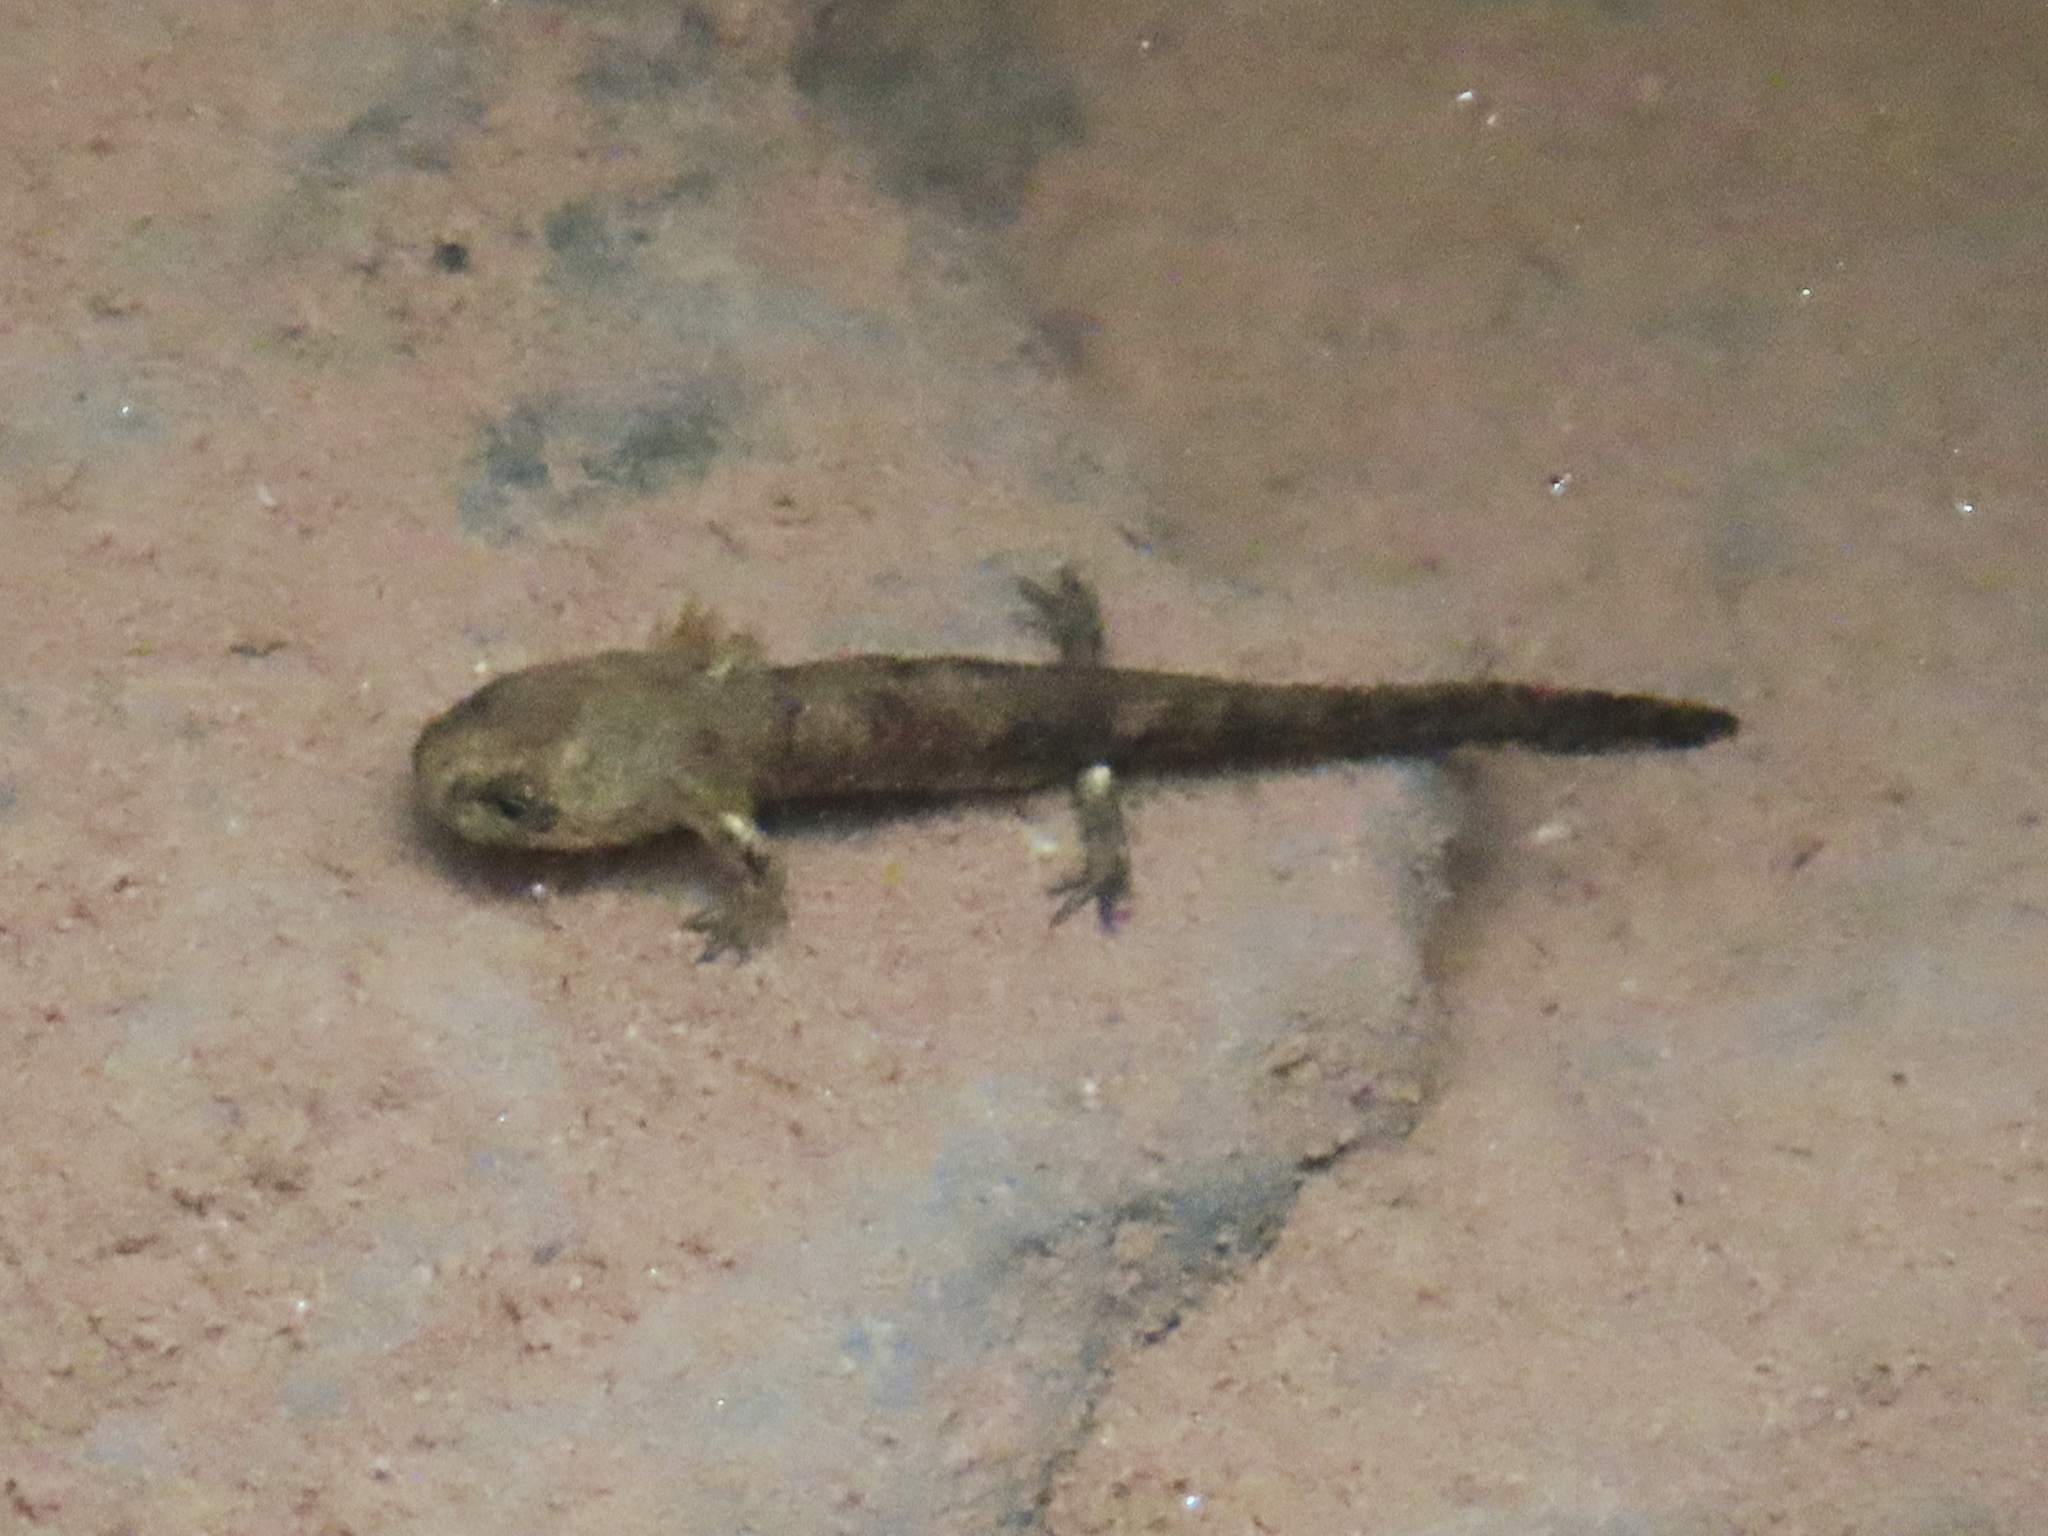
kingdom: Animalia
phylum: Chordata
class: Amphibia
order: Caudata
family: Salamandridae
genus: Salamandra
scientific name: Salamandra salamandra
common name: Fire salamander
